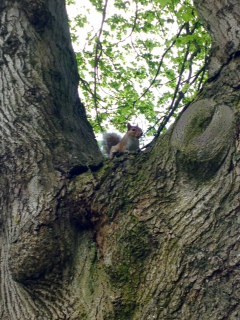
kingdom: Animalia
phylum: Chordata
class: Mammalia
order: Rodentia
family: Sciuridae
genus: Sciurus
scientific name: Sciurus carolinensis
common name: Eastern gray squirrel
